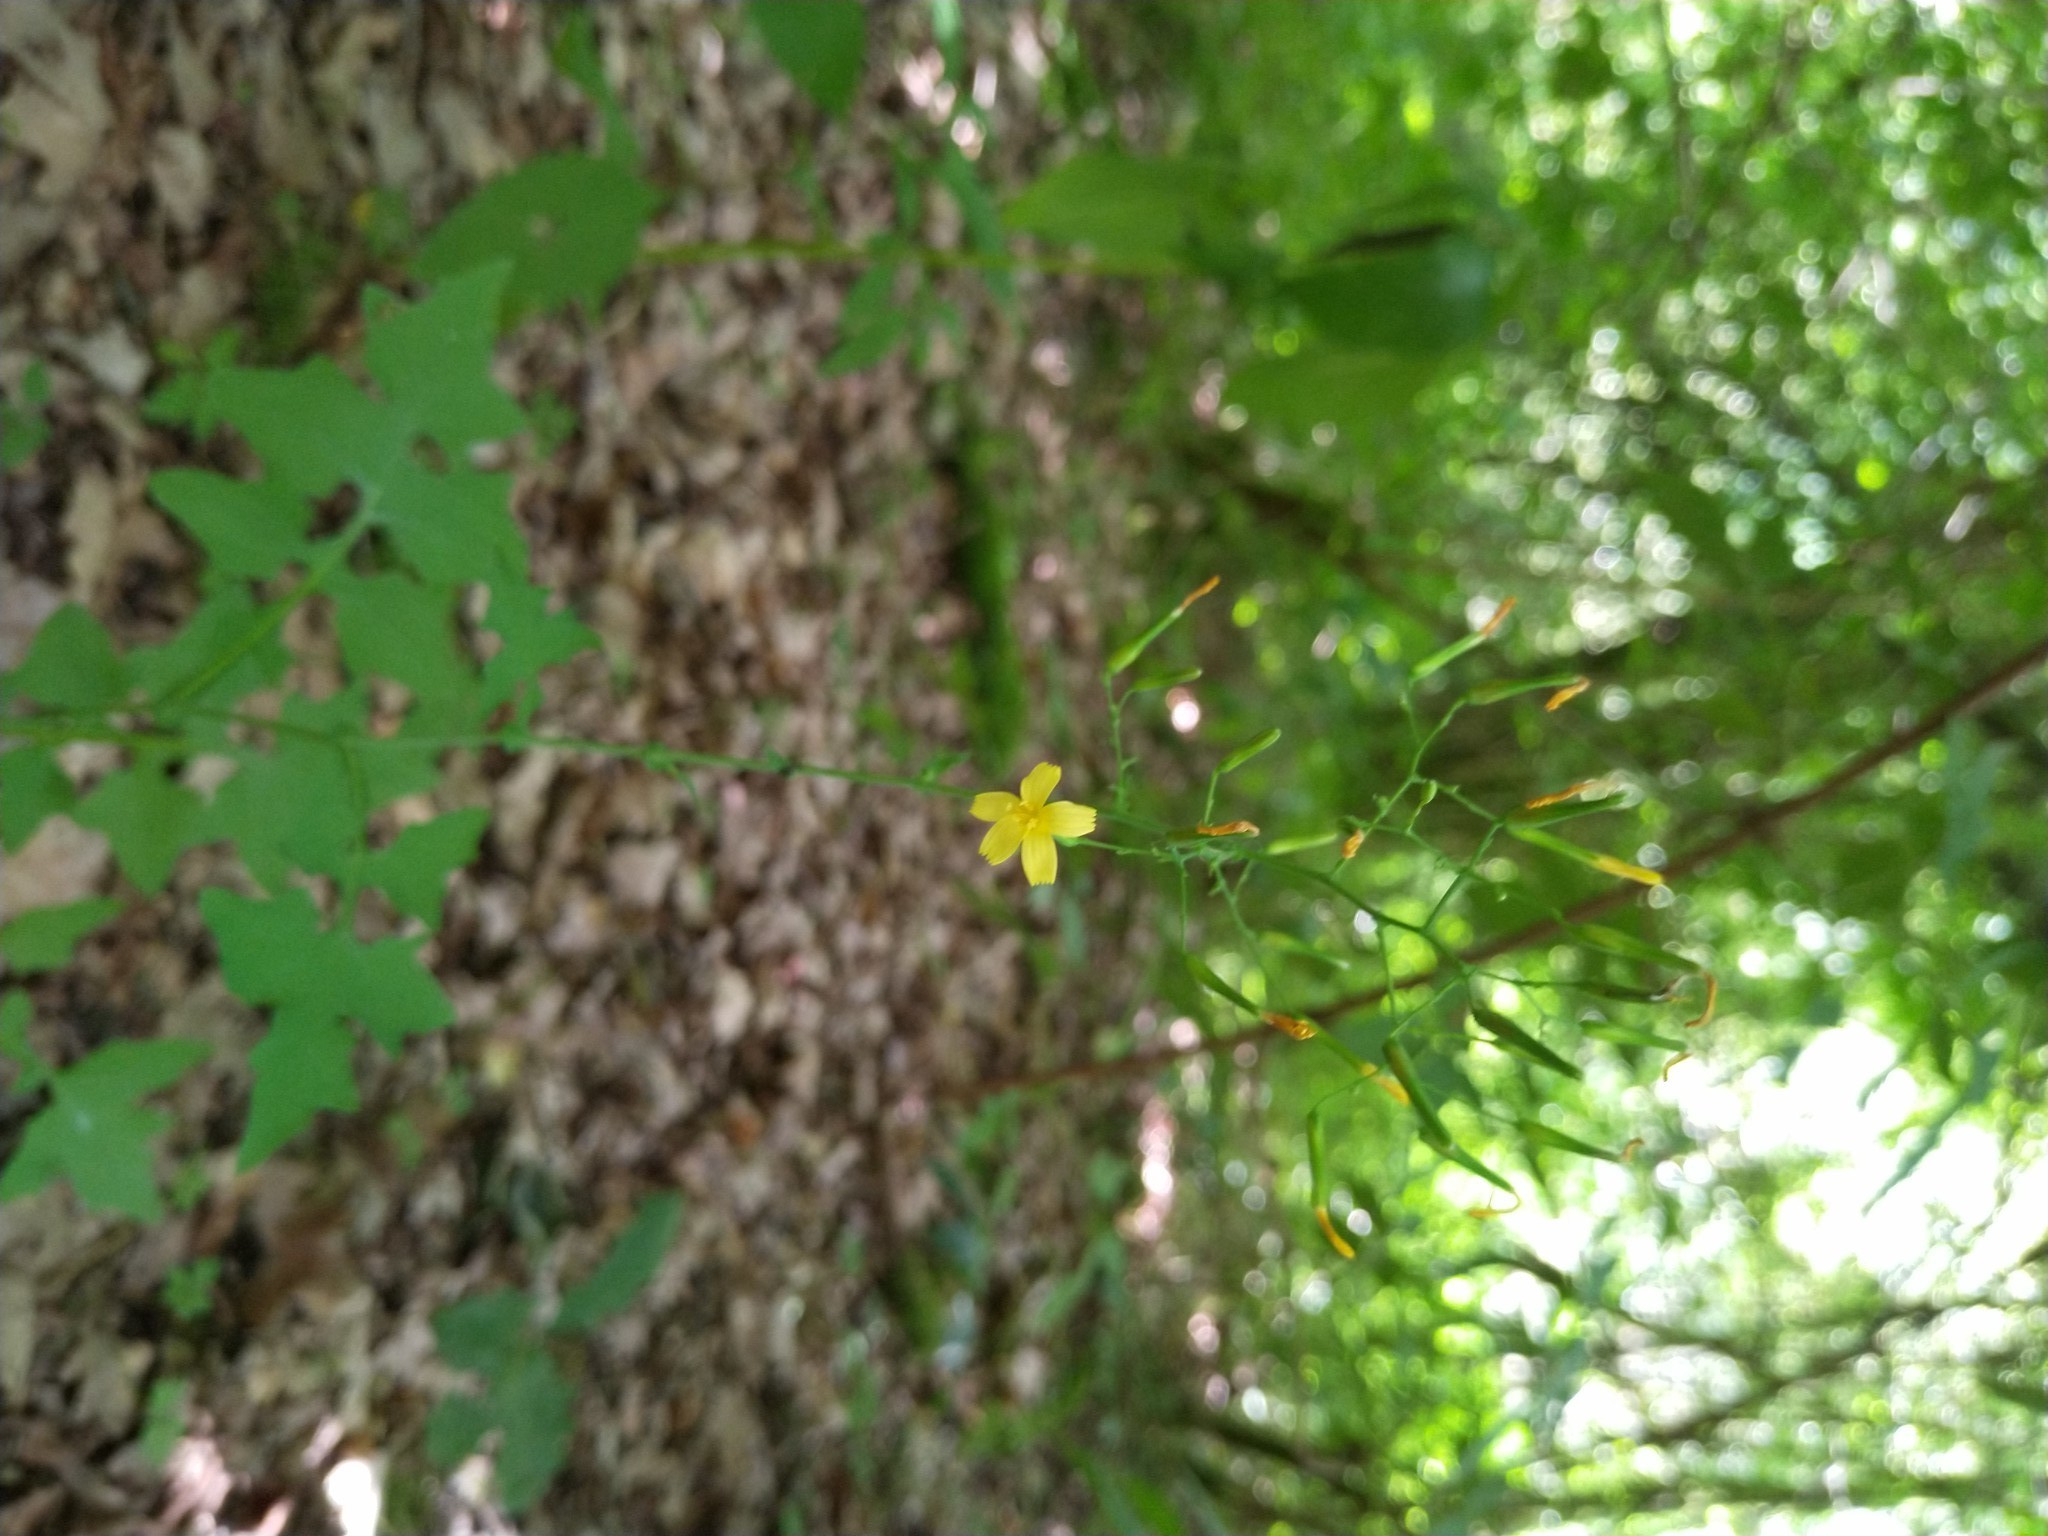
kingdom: Plantae
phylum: Tracheophyta
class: Magnoliopsida
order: Asterales
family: Asteraceae
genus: Mycelis
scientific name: Mycelis muralis
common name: Wall lettuce
